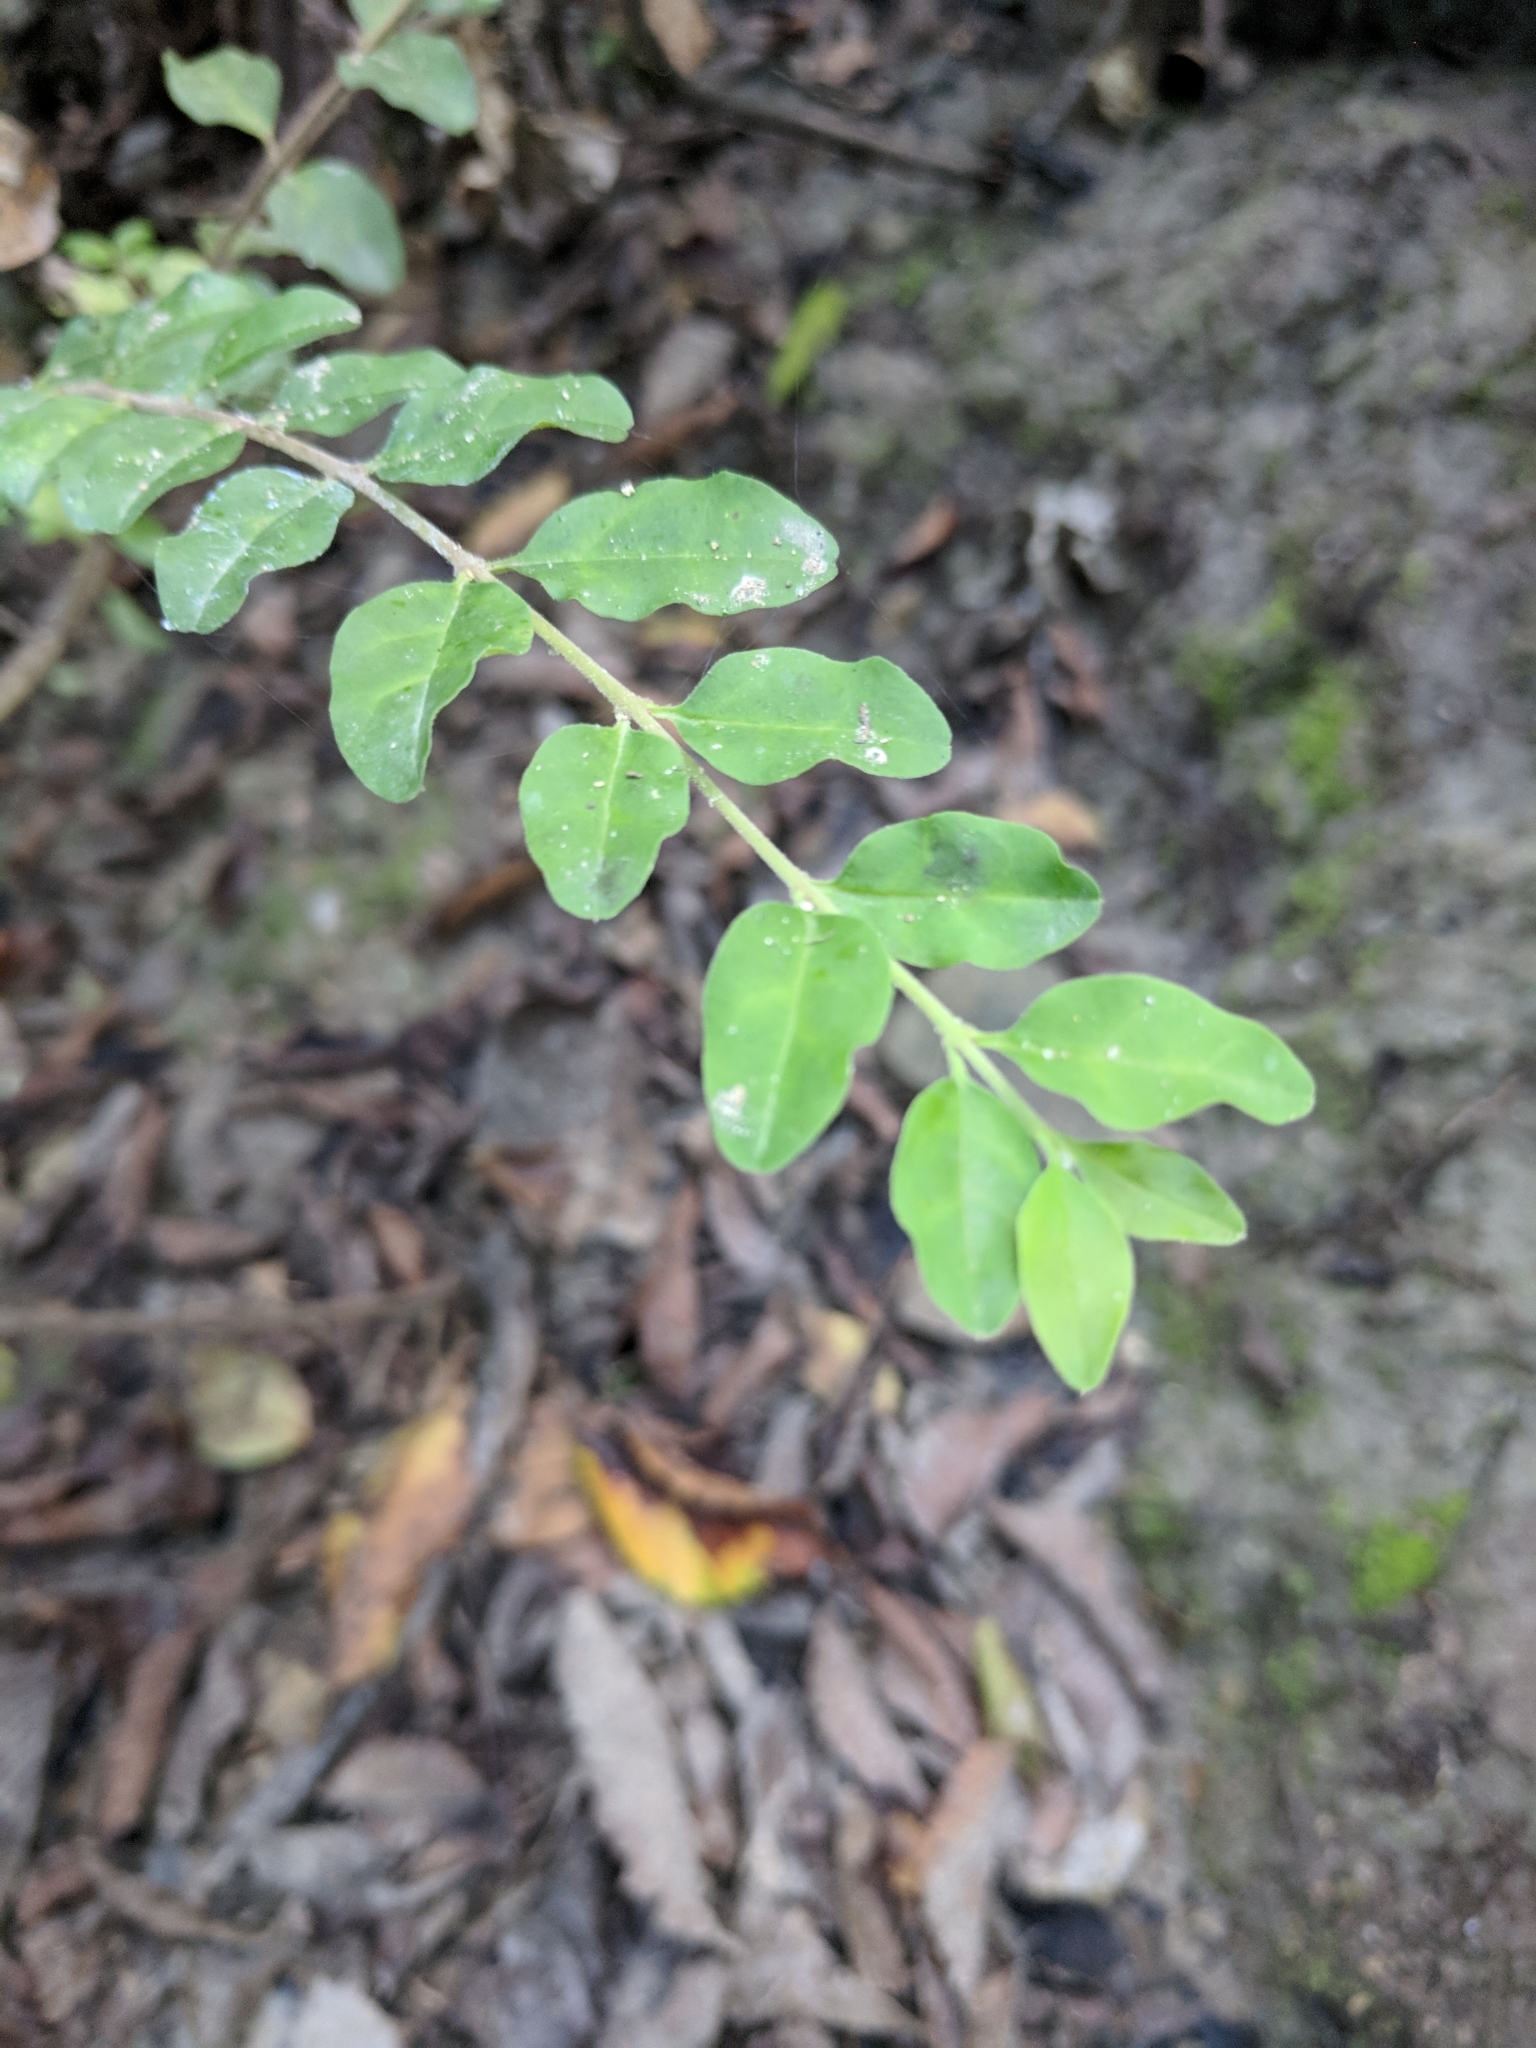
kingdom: Plantae
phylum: Tracheophyta
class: Magnoliopsida
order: Lamiales
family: Oleaceae
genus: Ligustrum
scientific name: Ligustrum sinense
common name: Chinese privet
